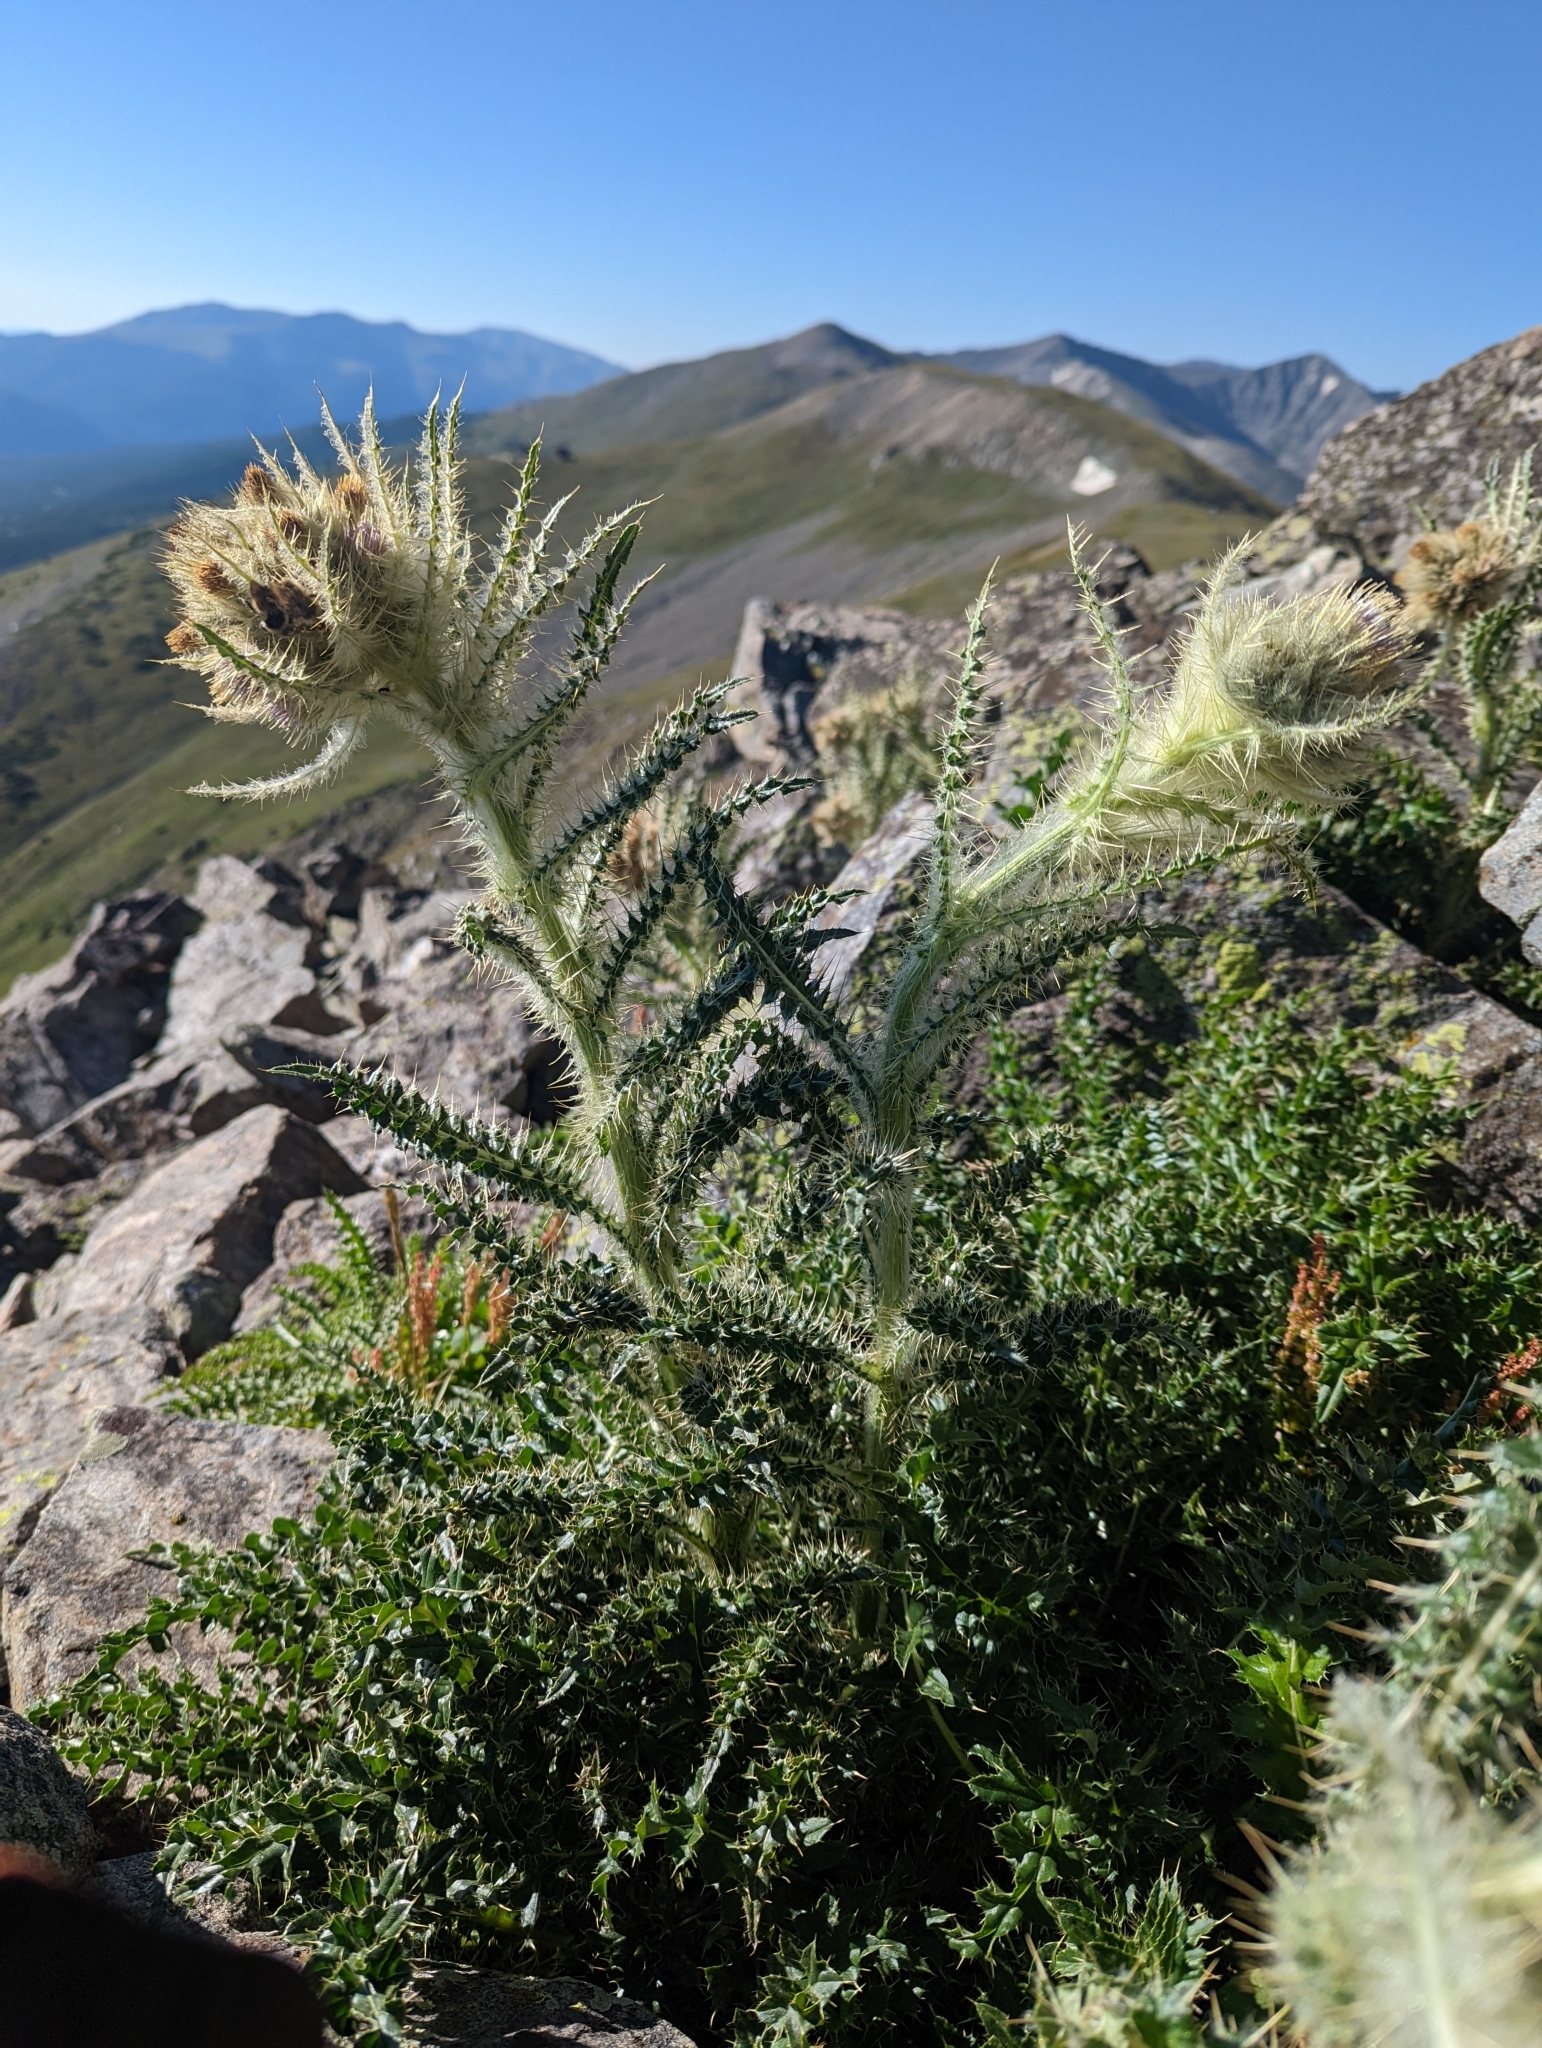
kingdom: Plantae
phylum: Tracheophyta
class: Magnoliopsida
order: Asterales
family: Asteraceae
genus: Cirsium
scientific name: Cirsium scopulorum
